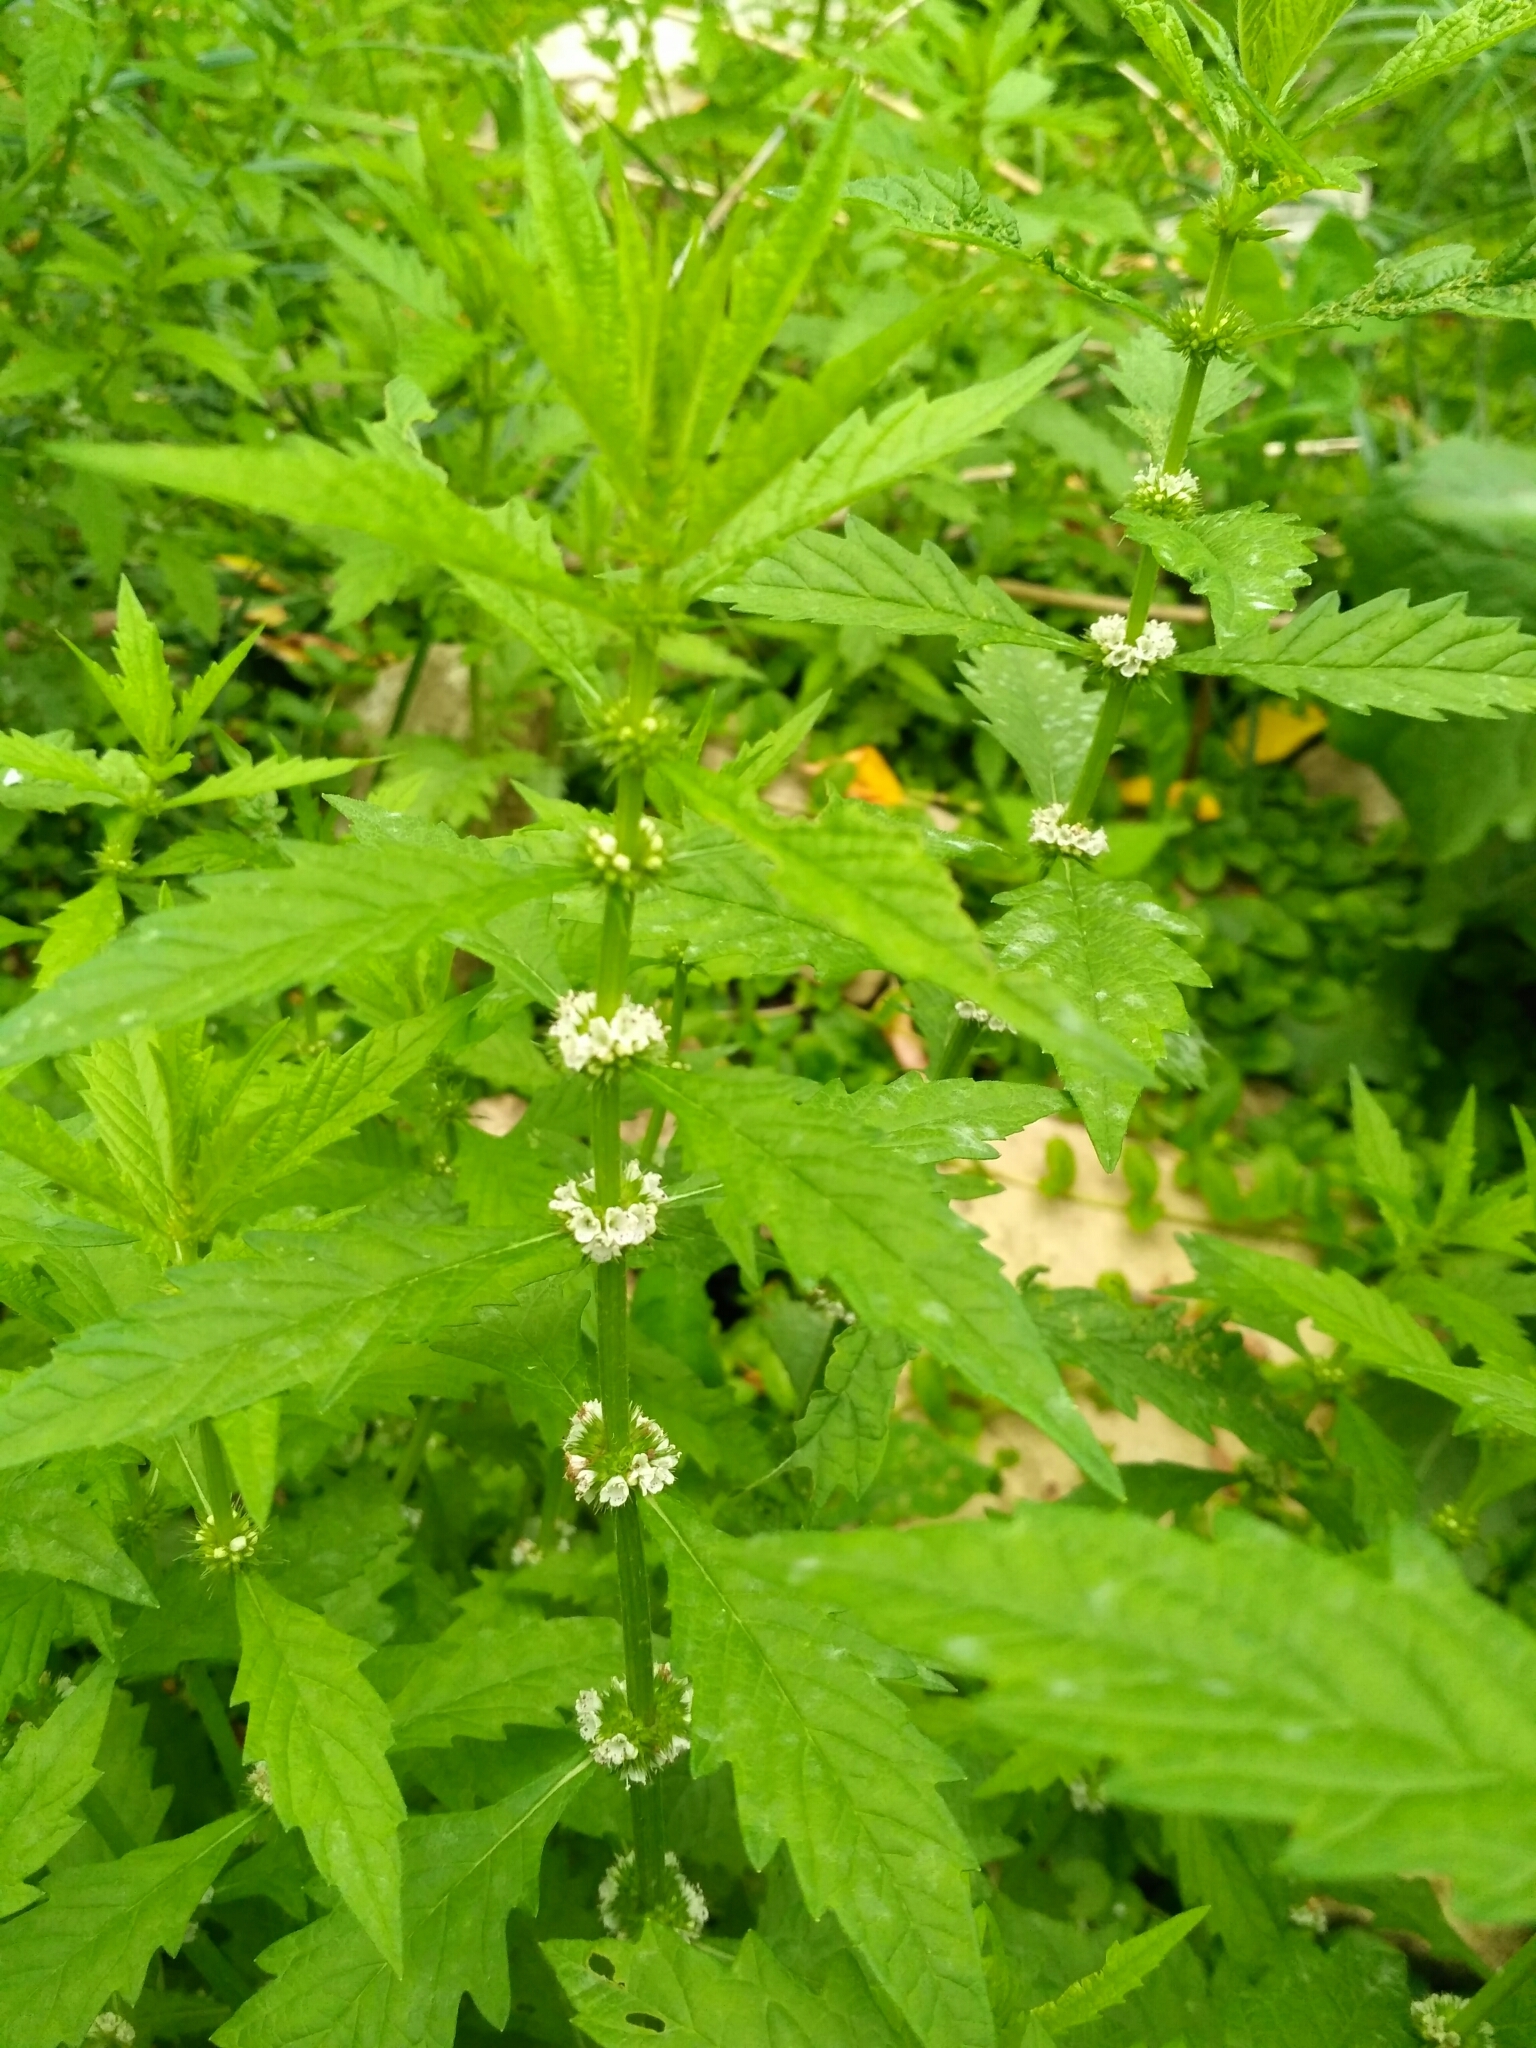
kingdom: Plantae
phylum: Tracheophyta
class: Magnoliopsida
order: Lamiales
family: Lamiaceae
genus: Lycopus
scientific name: Lycopus europaeus
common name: European bugleweed
